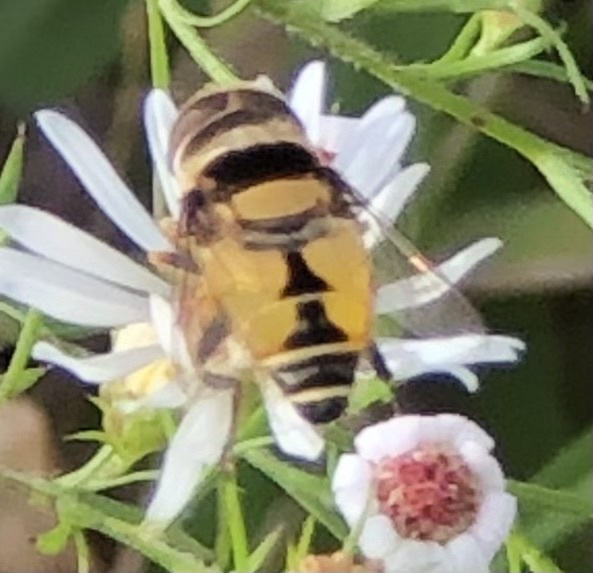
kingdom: Animalia
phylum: Arthropoda
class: Insecta
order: Diptera
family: Syrphidae
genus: Palpada
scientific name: Palpada pusilla
